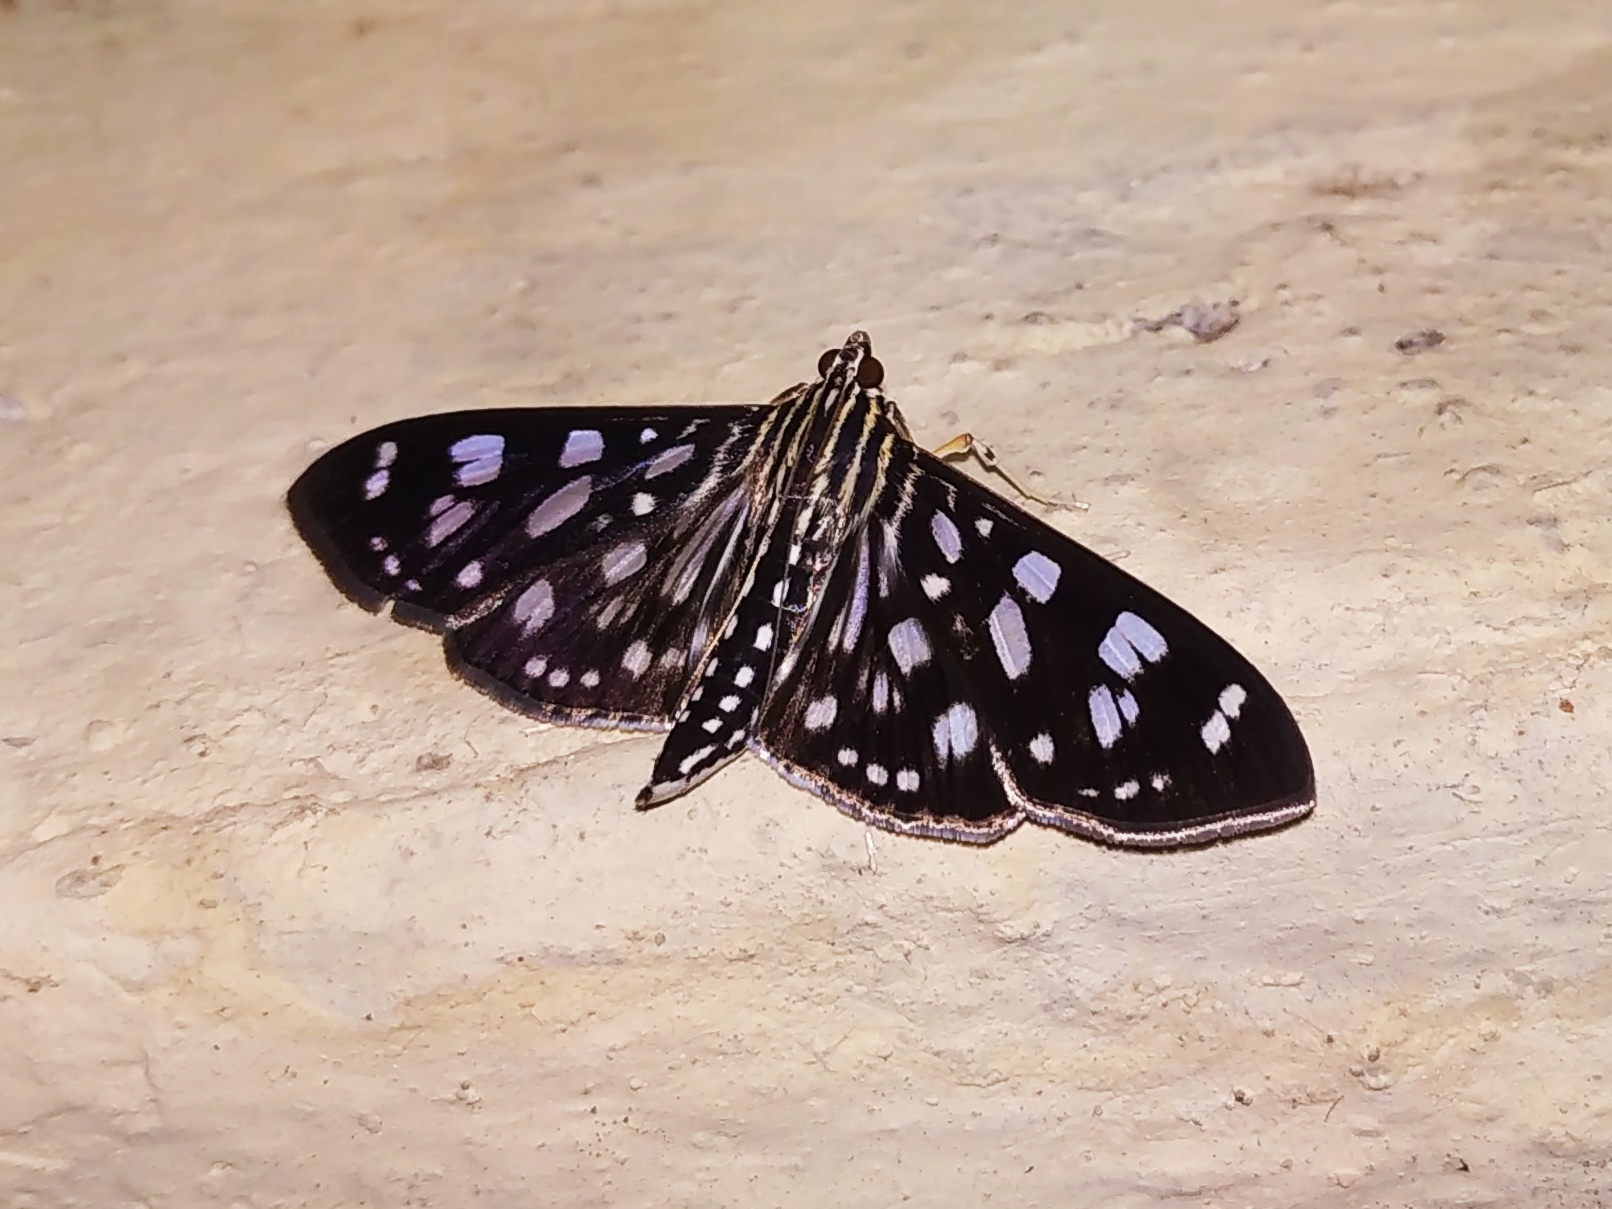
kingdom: Animalia
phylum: Arthropoda
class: Insecta
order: Lepidoptera
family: Crambidae
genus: Pygospila
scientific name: Pygospila tyres
